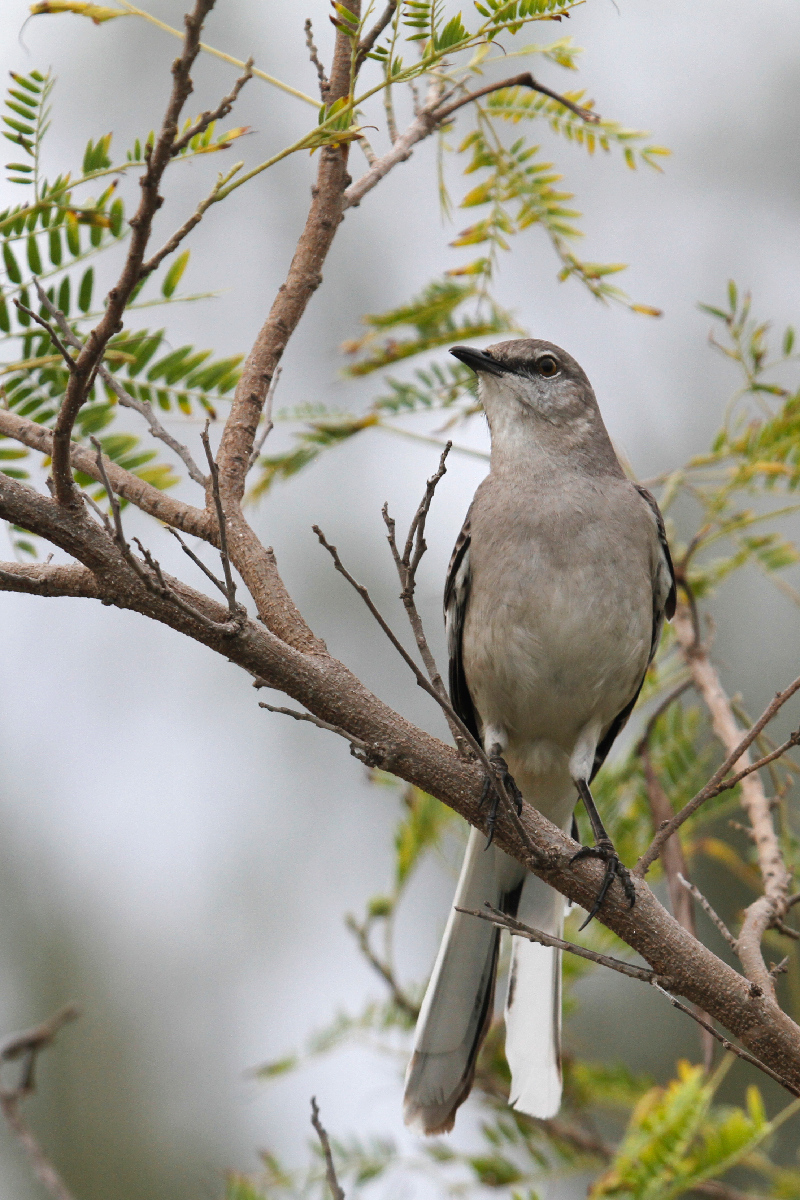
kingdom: Animalia
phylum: Chordata
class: Aves
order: Passeriformes
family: Mimidae
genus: Mimus
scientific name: Mimus polyglottos
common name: Northern mockingbird
